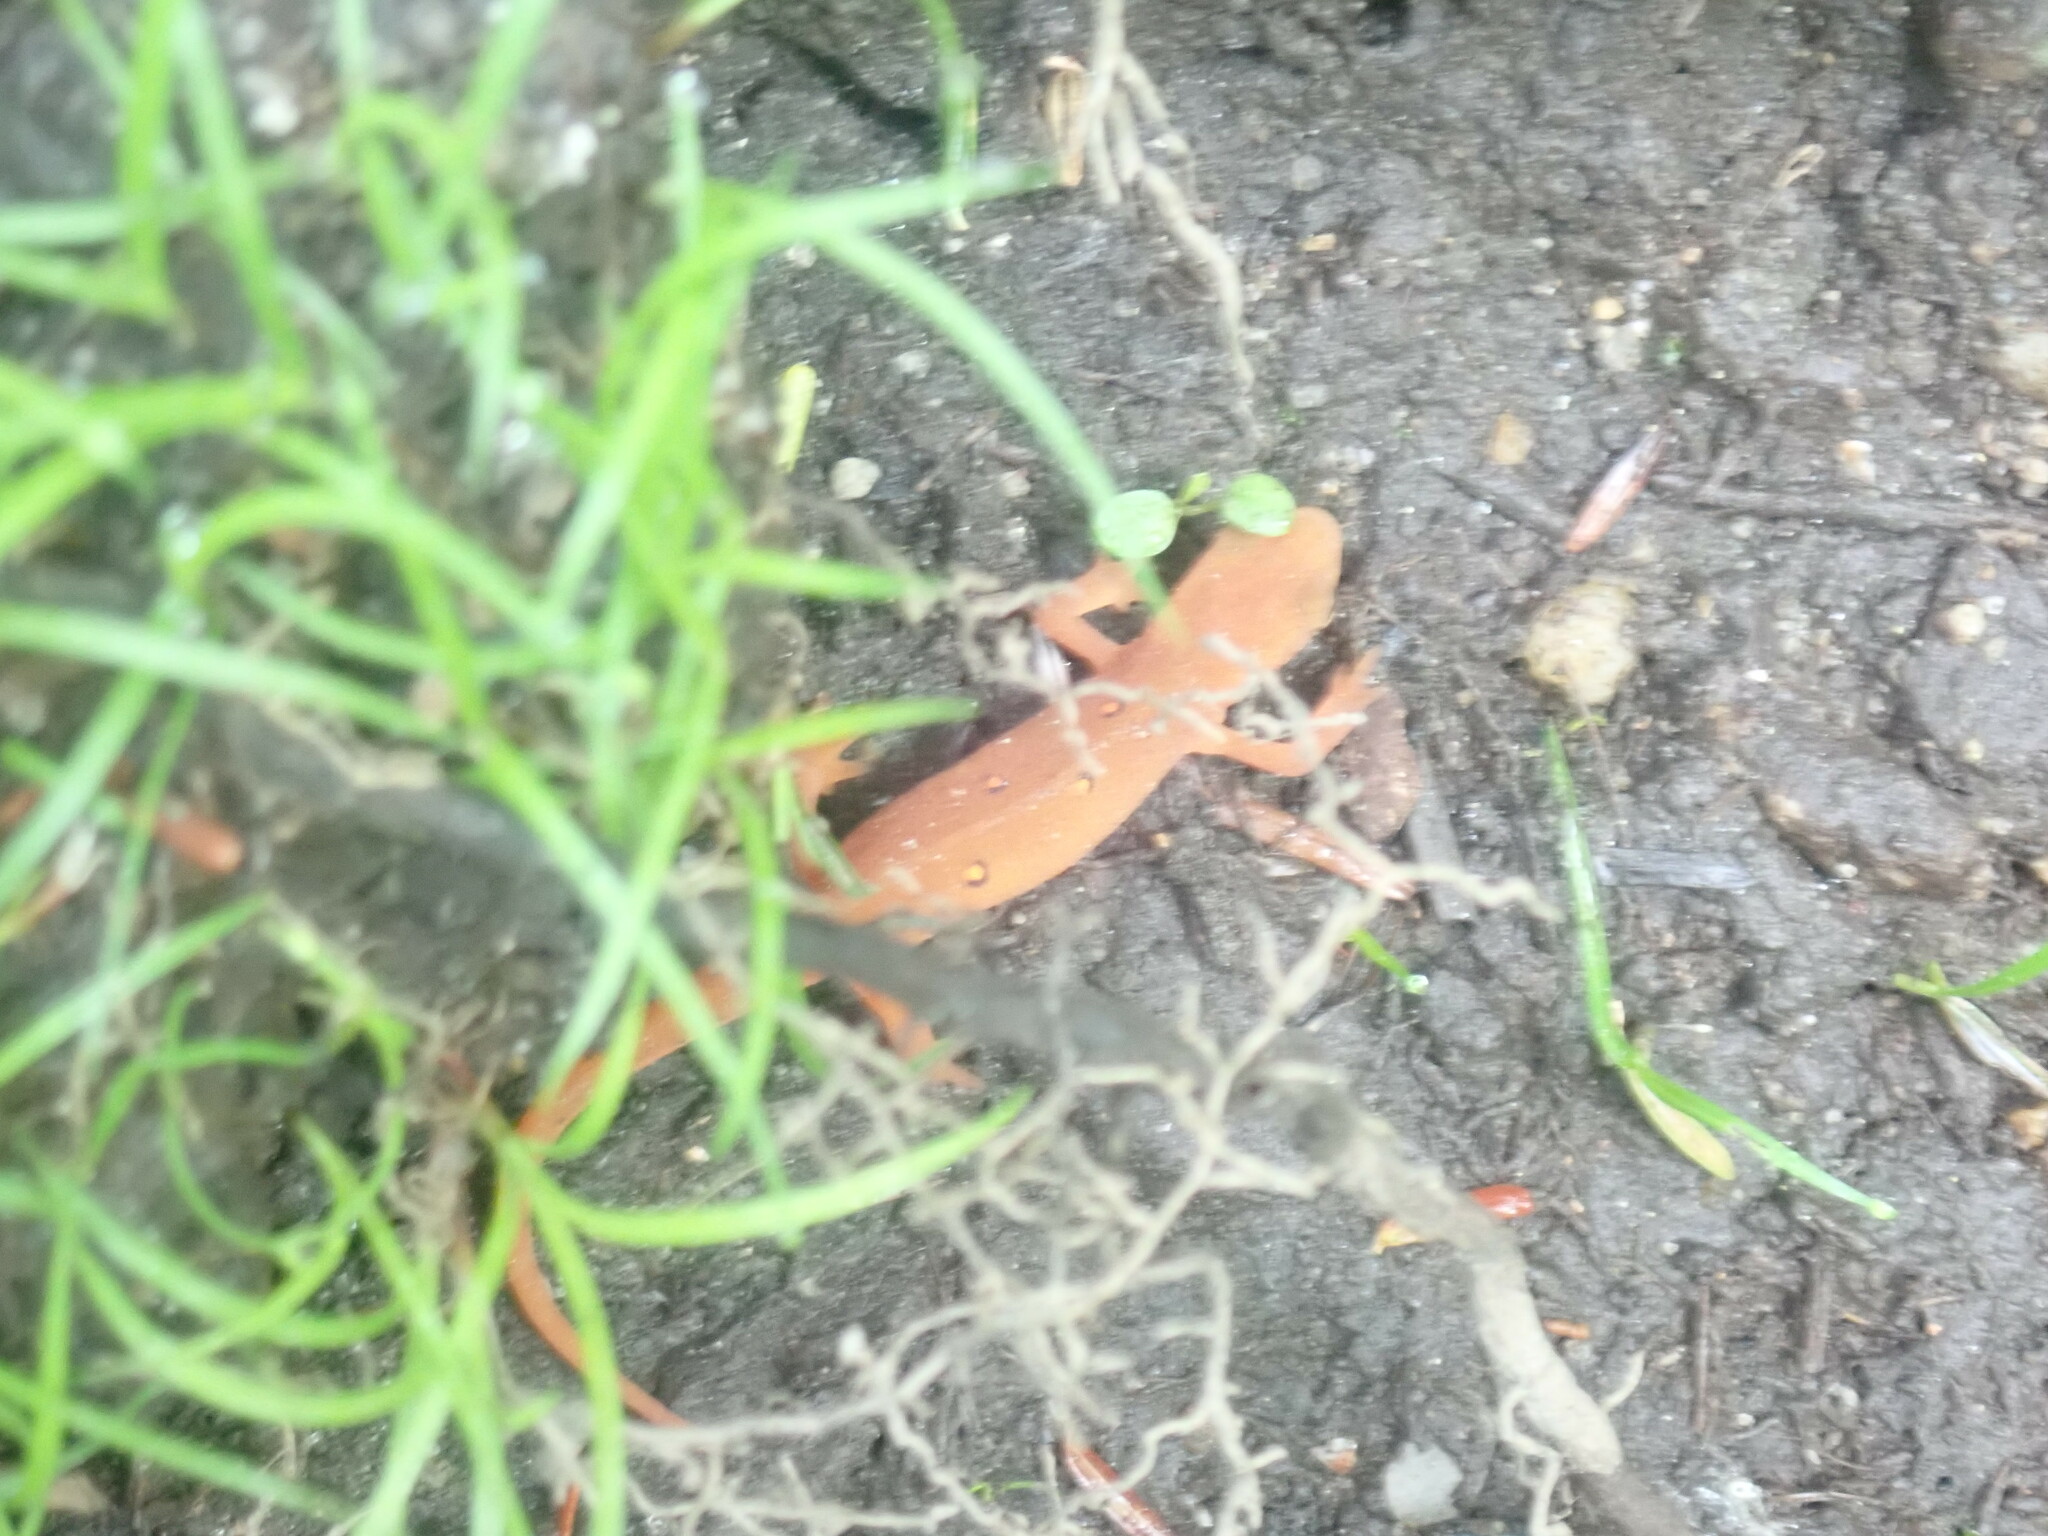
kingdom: Animalia
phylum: Chordata
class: Amphibia
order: Caudata
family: Salamandridae
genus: Notophthalmus
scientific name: Notophthalmus viridescens
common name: Eastern newt
